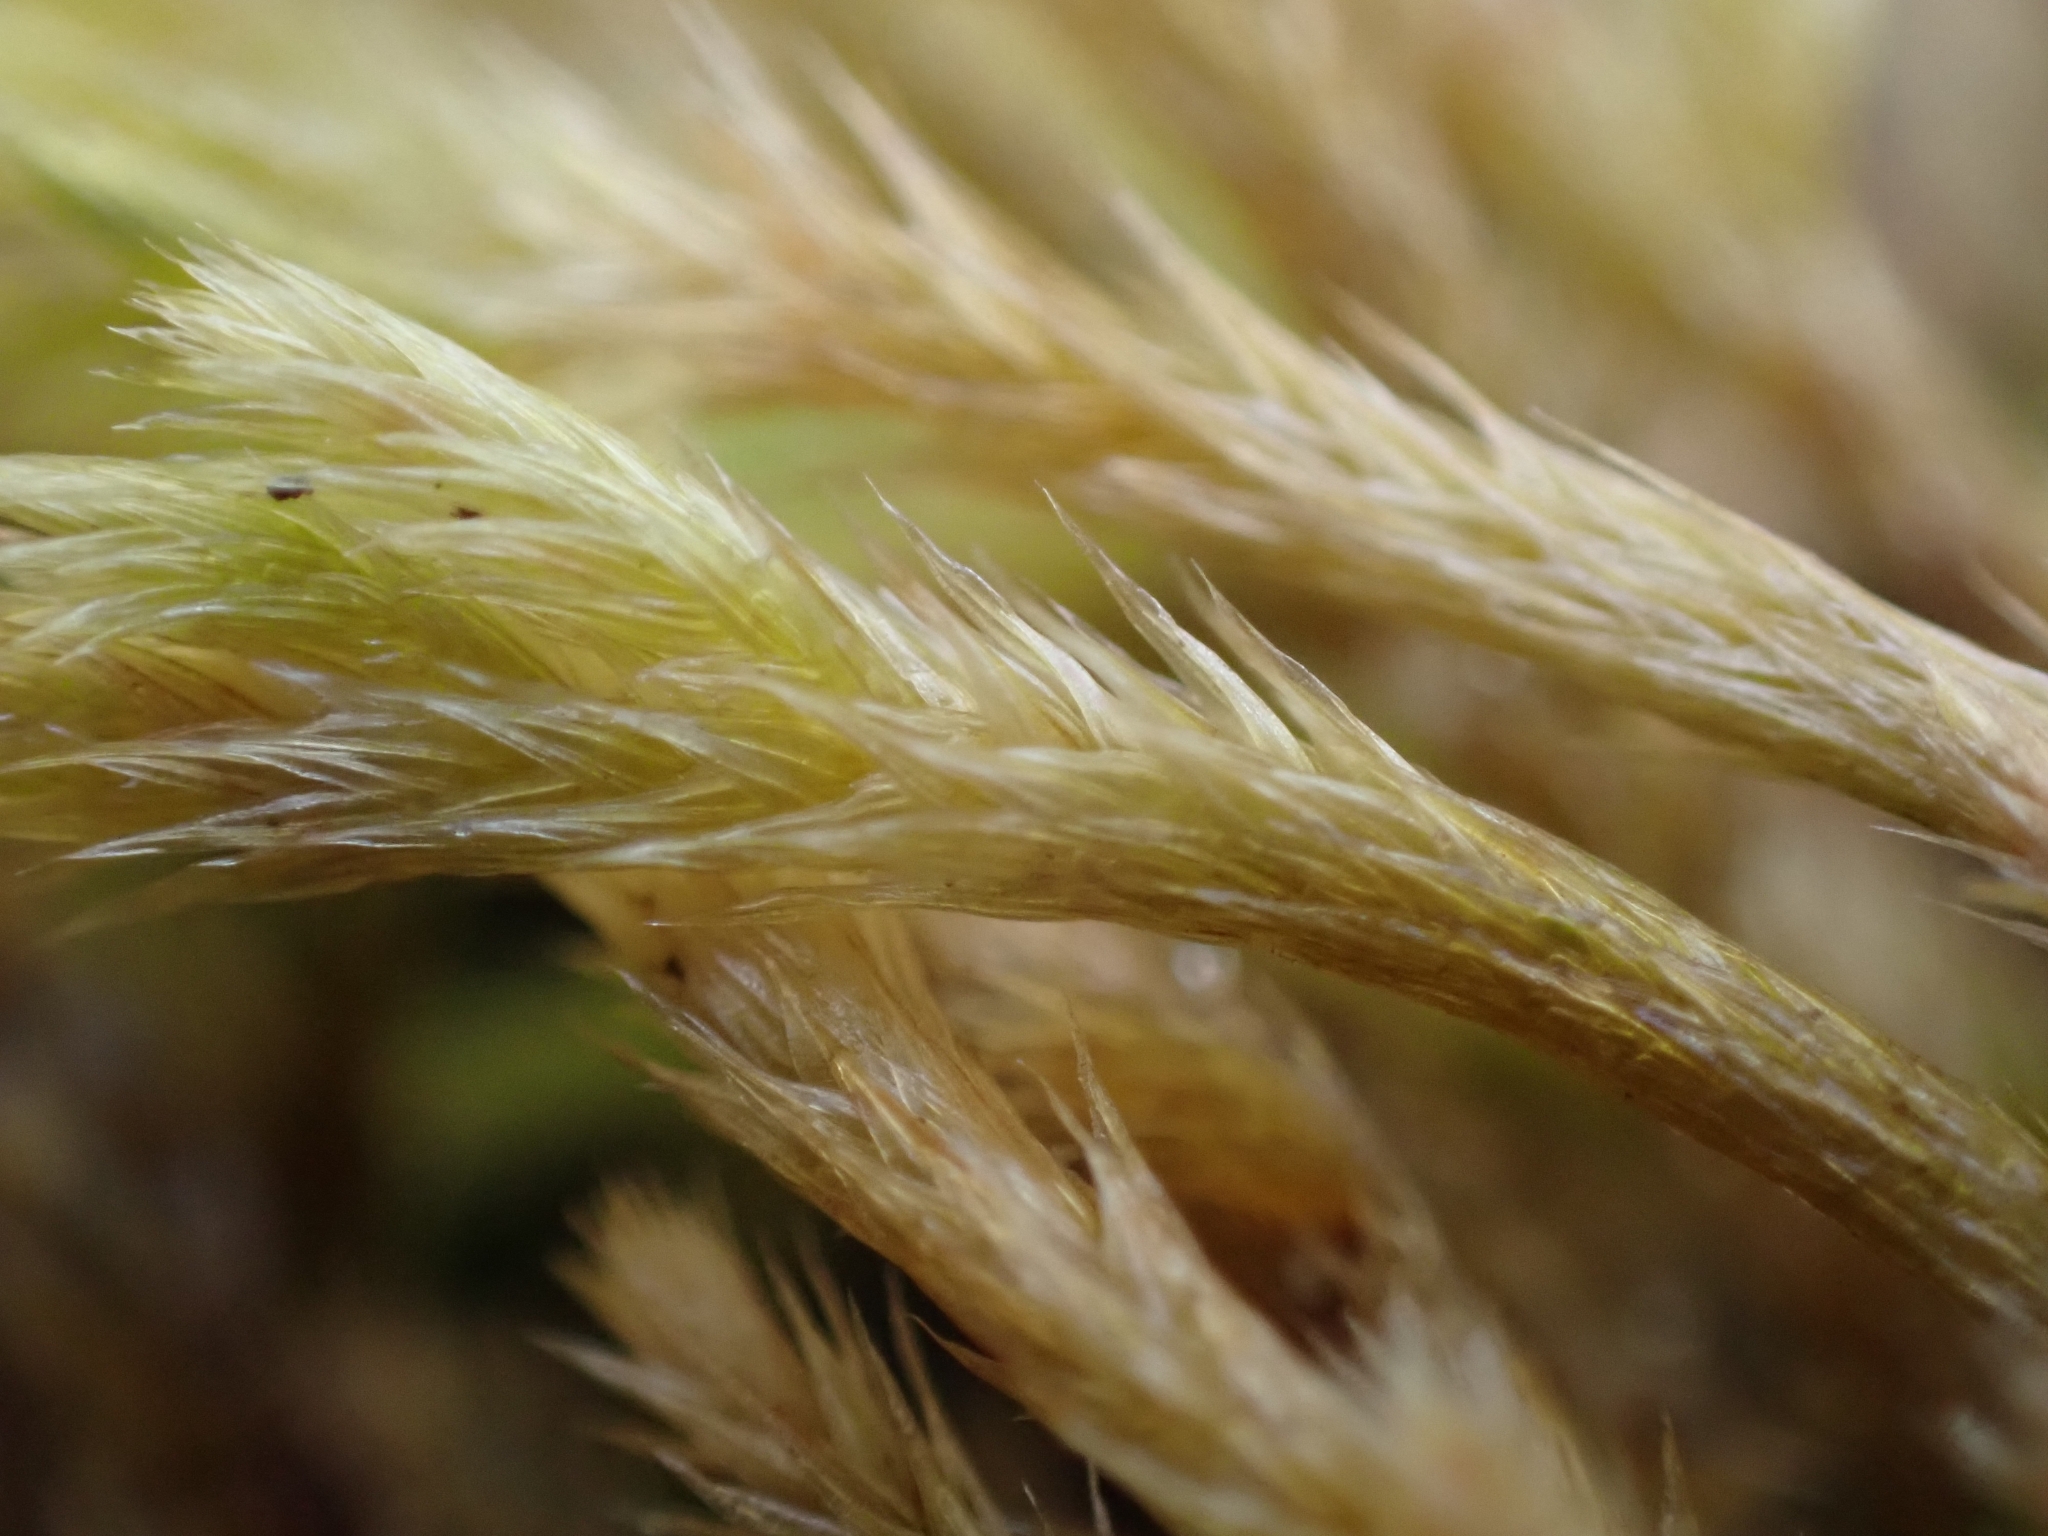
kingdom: Plantae
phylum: Bryophyta
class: Bryopsida
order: Hypnales
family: Brachytheciaceae
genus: Homalothecium
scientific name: Homalothecium lutescens
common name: Yellow feather-moss
